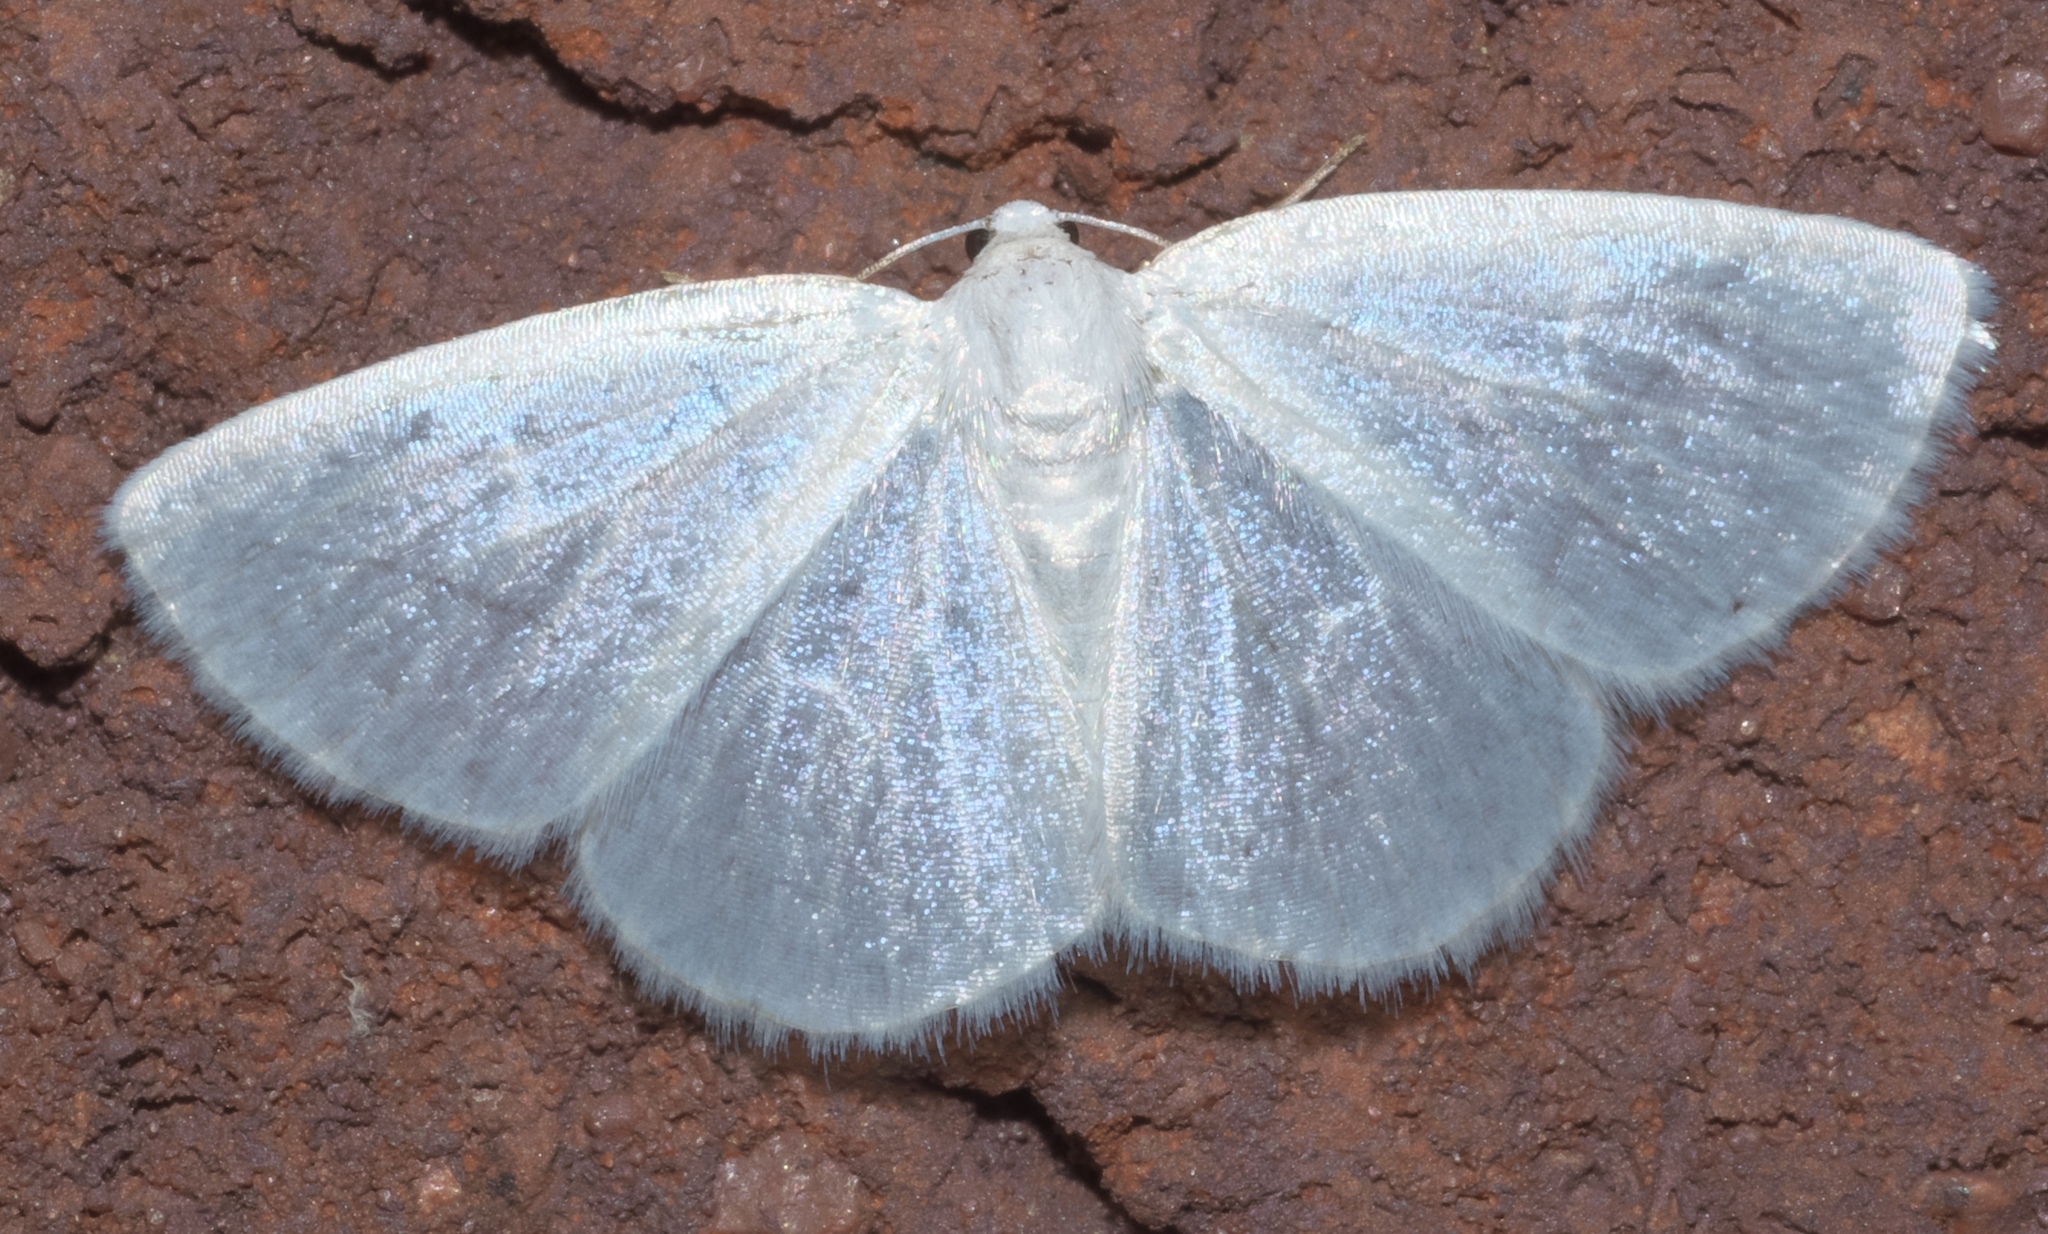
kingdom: Animalia
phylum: Arthropoda
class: Insecta
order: Lepidoptera
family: Geometridae
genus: Lomographa
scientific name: Lomographa vestaliata
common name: White spring moth
